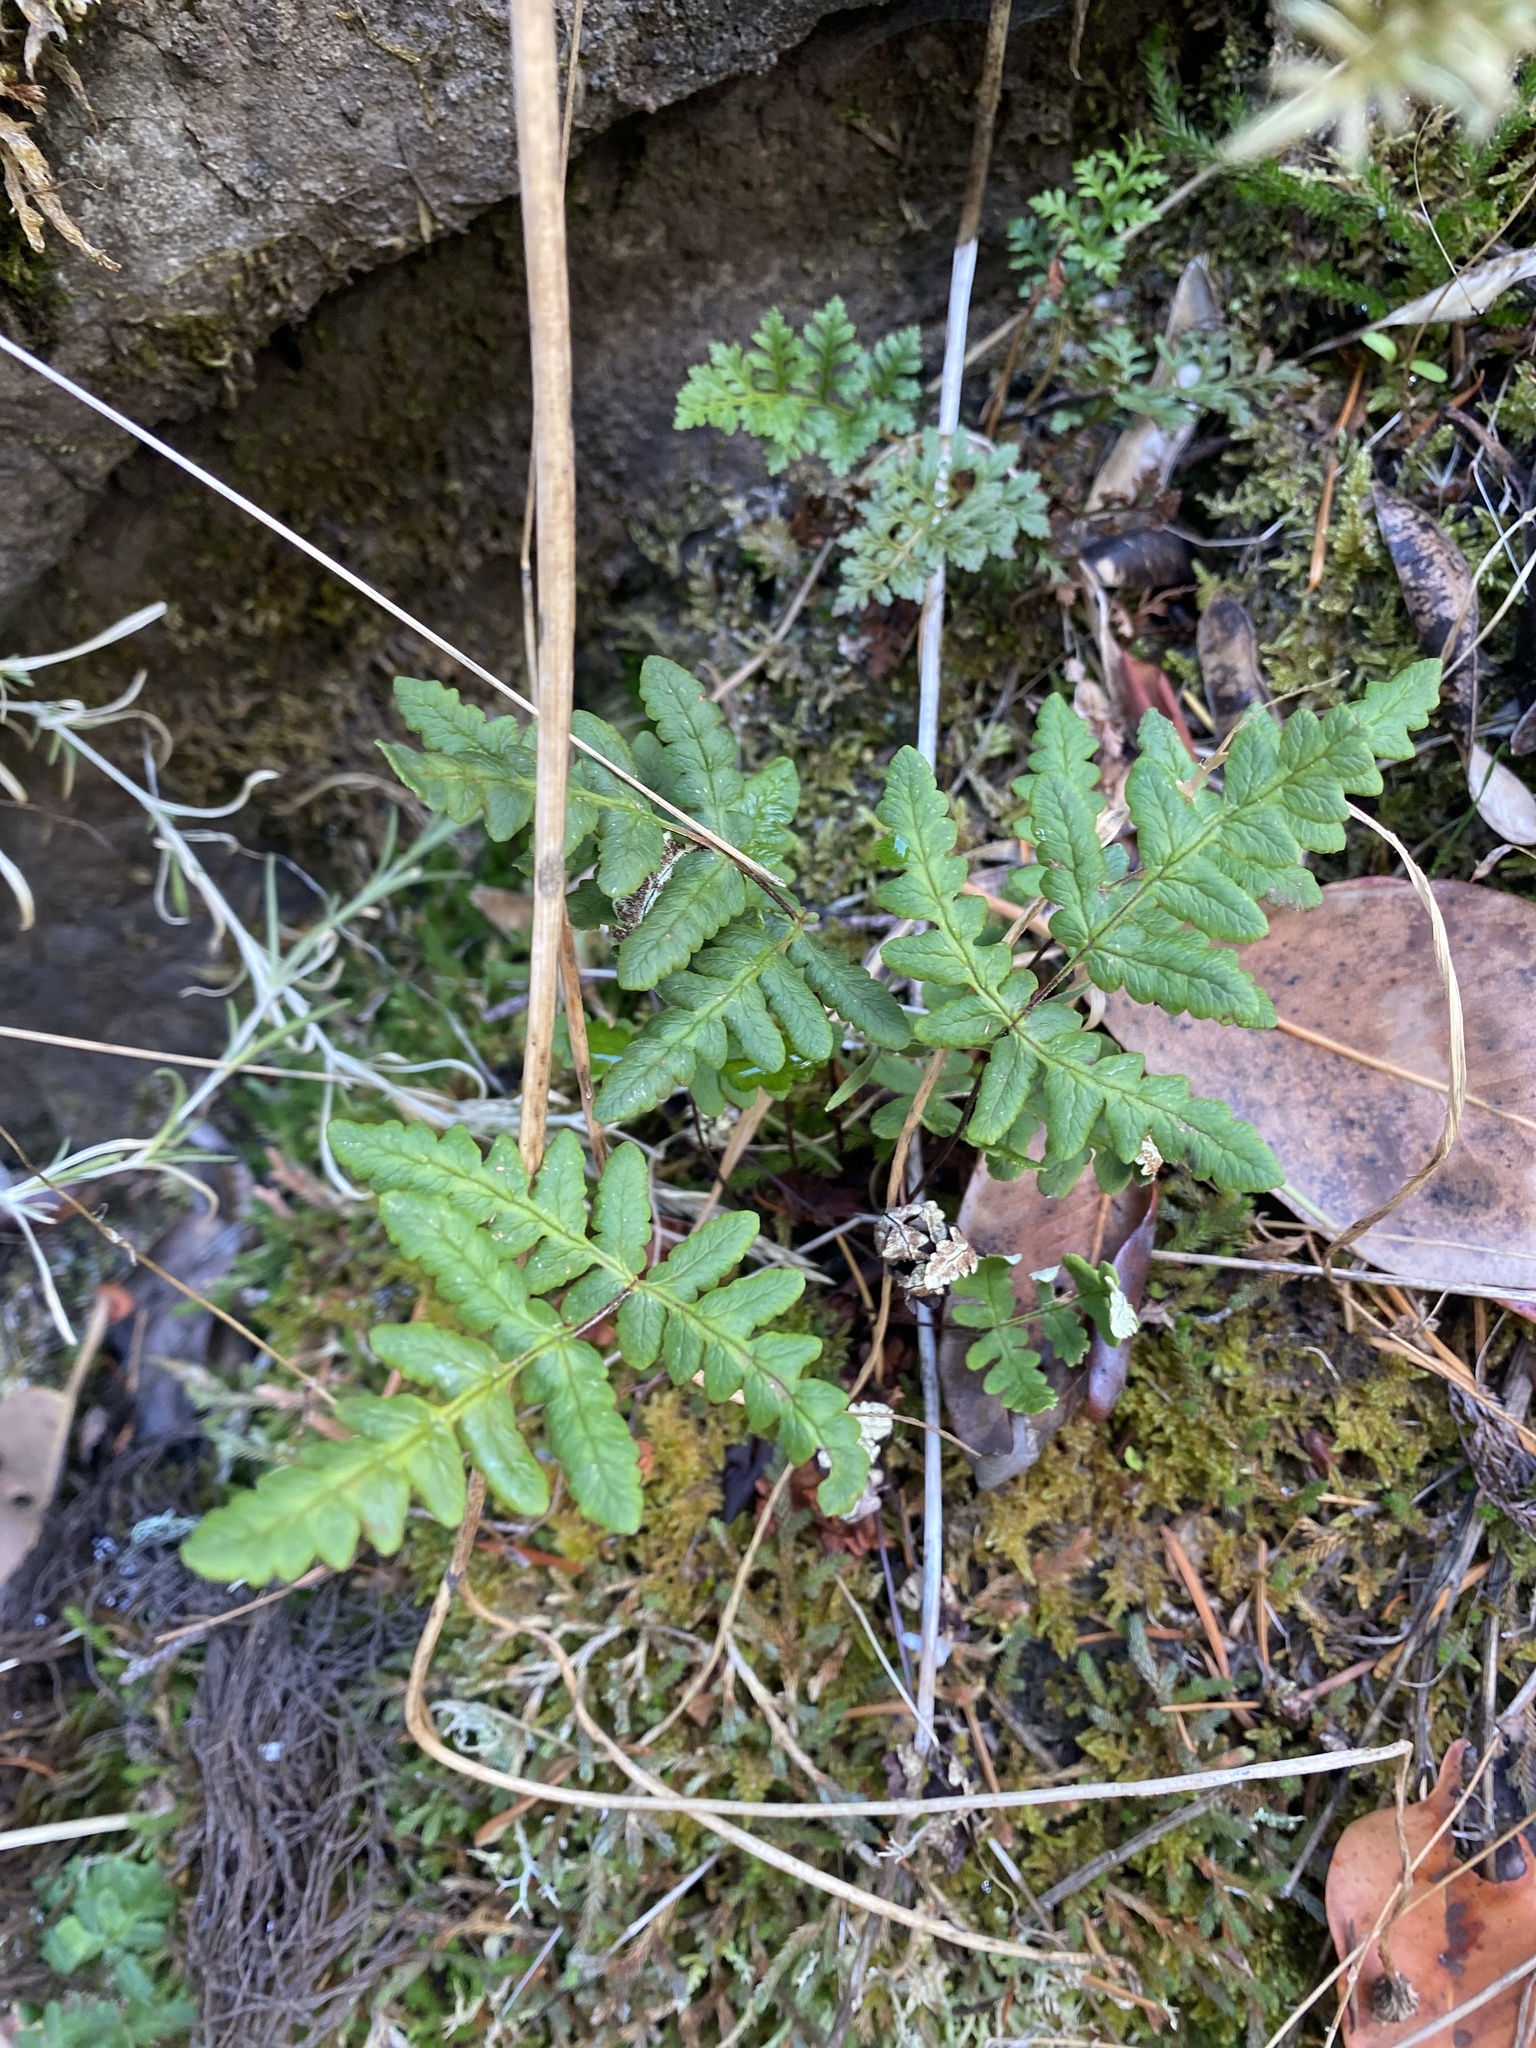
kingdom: Plantae
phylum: Tracheophyta
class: Polypodiopsida
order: Polypodiales
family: Pteridaceae
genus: Pentagramma
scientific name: Pentagramma triangularis
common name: Gold fern
